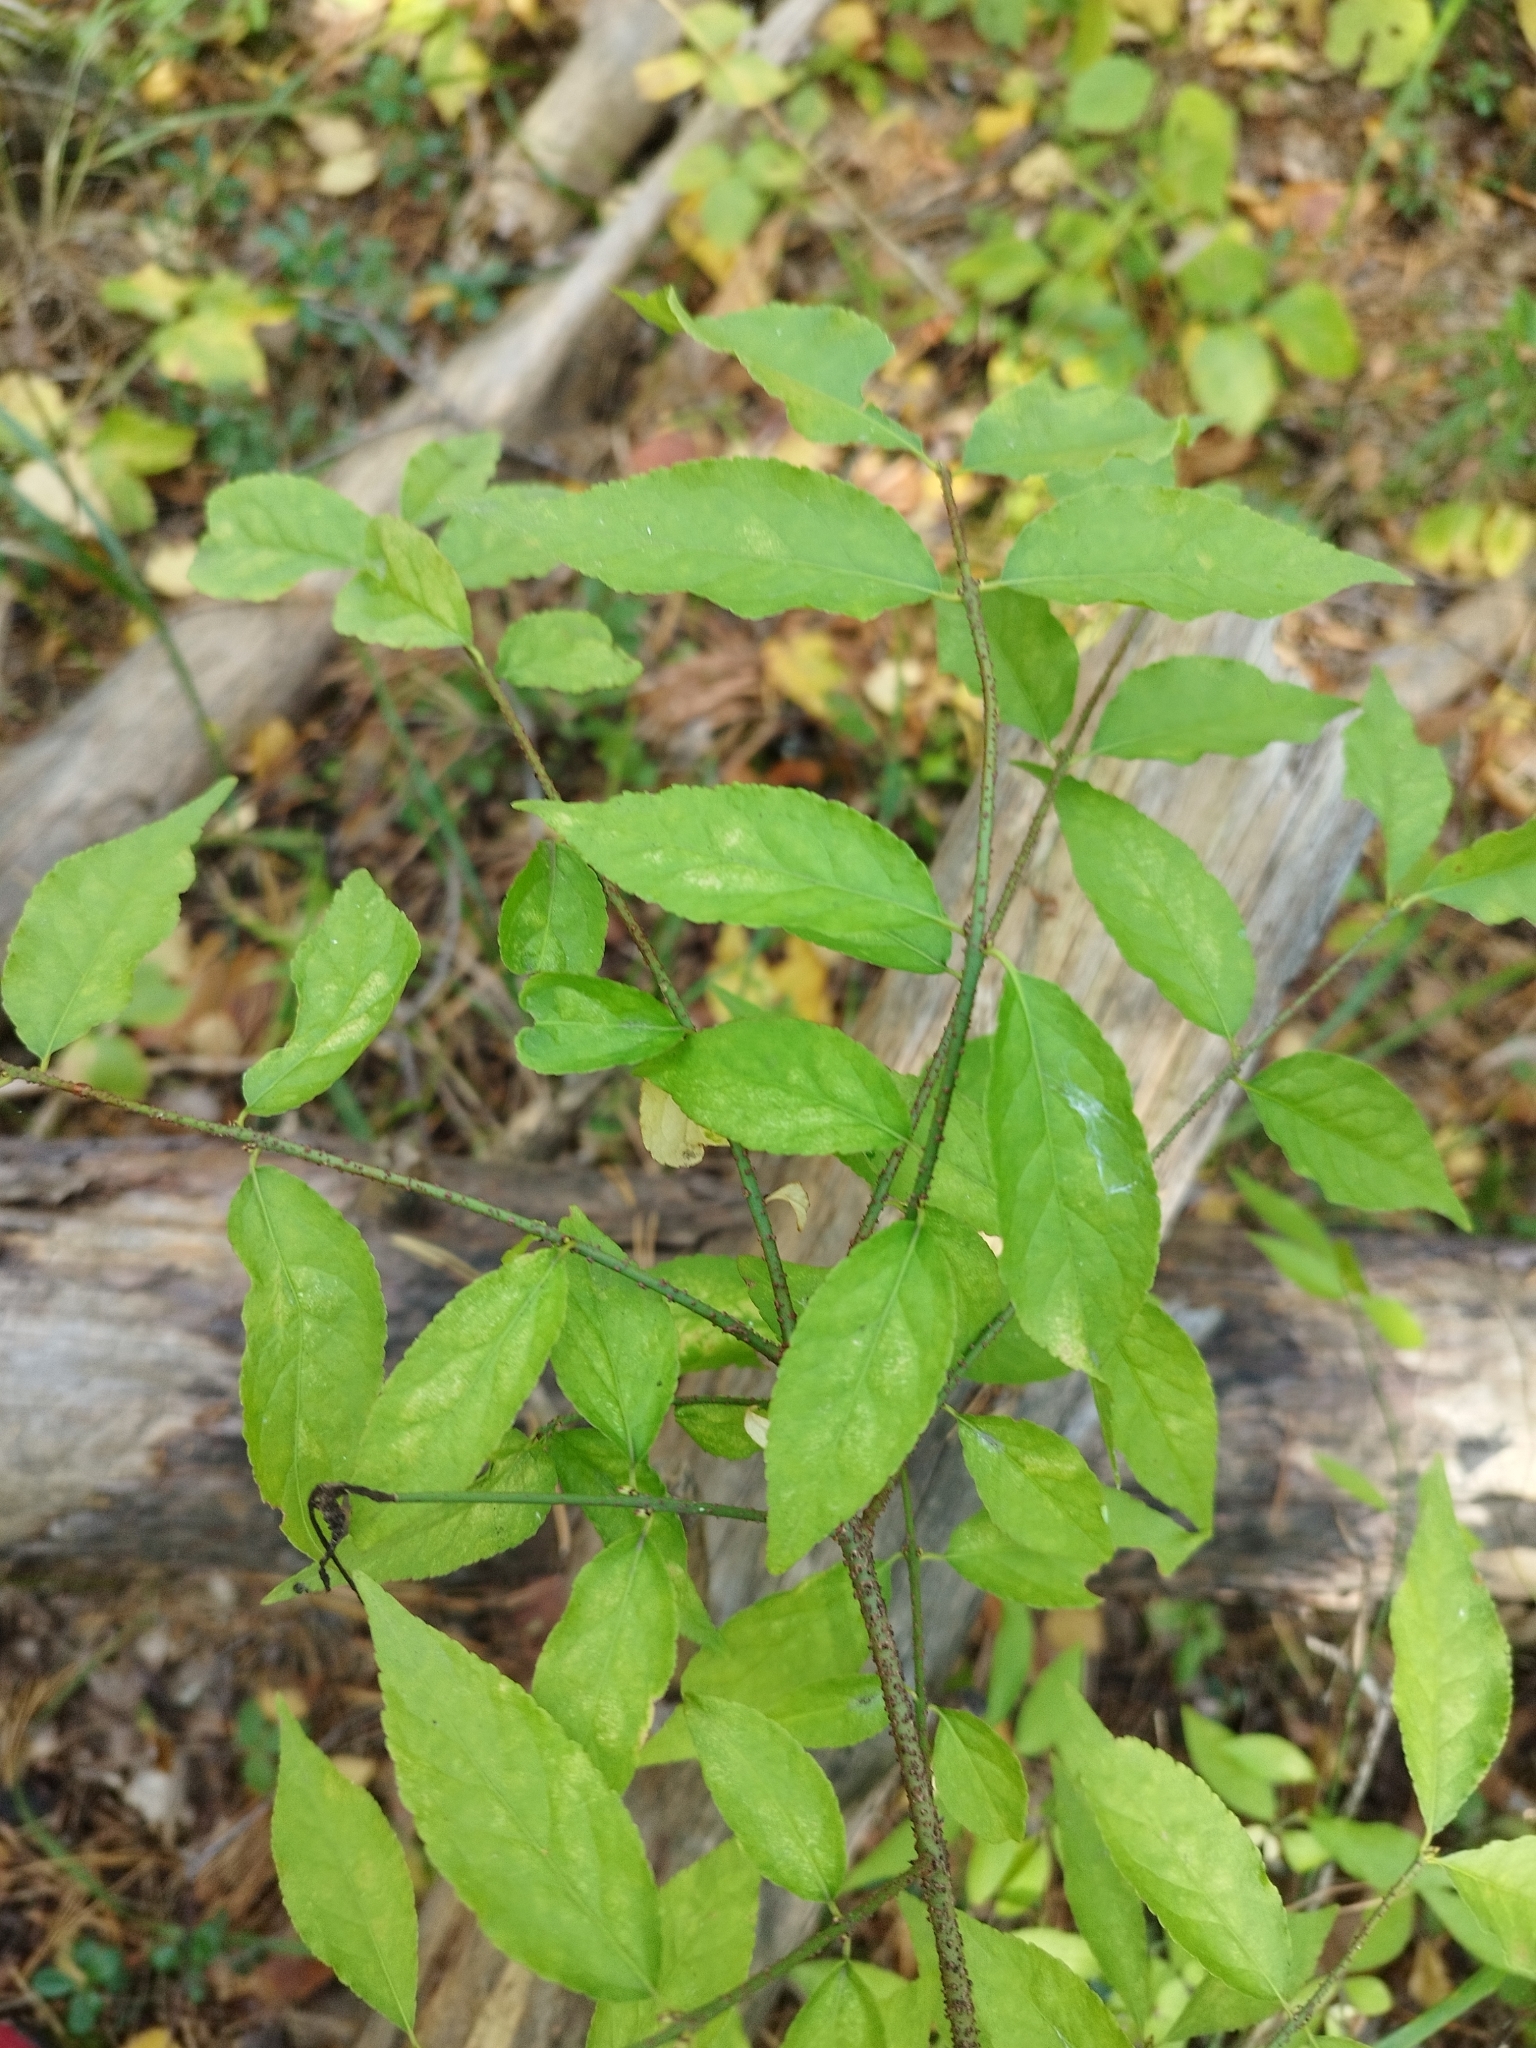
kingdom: Plantae
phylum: Tracheophyta
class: Magnoliopsida
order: Celastrales
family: Celastraceae
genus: Euonymus
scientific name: Euonymus verrucosus
